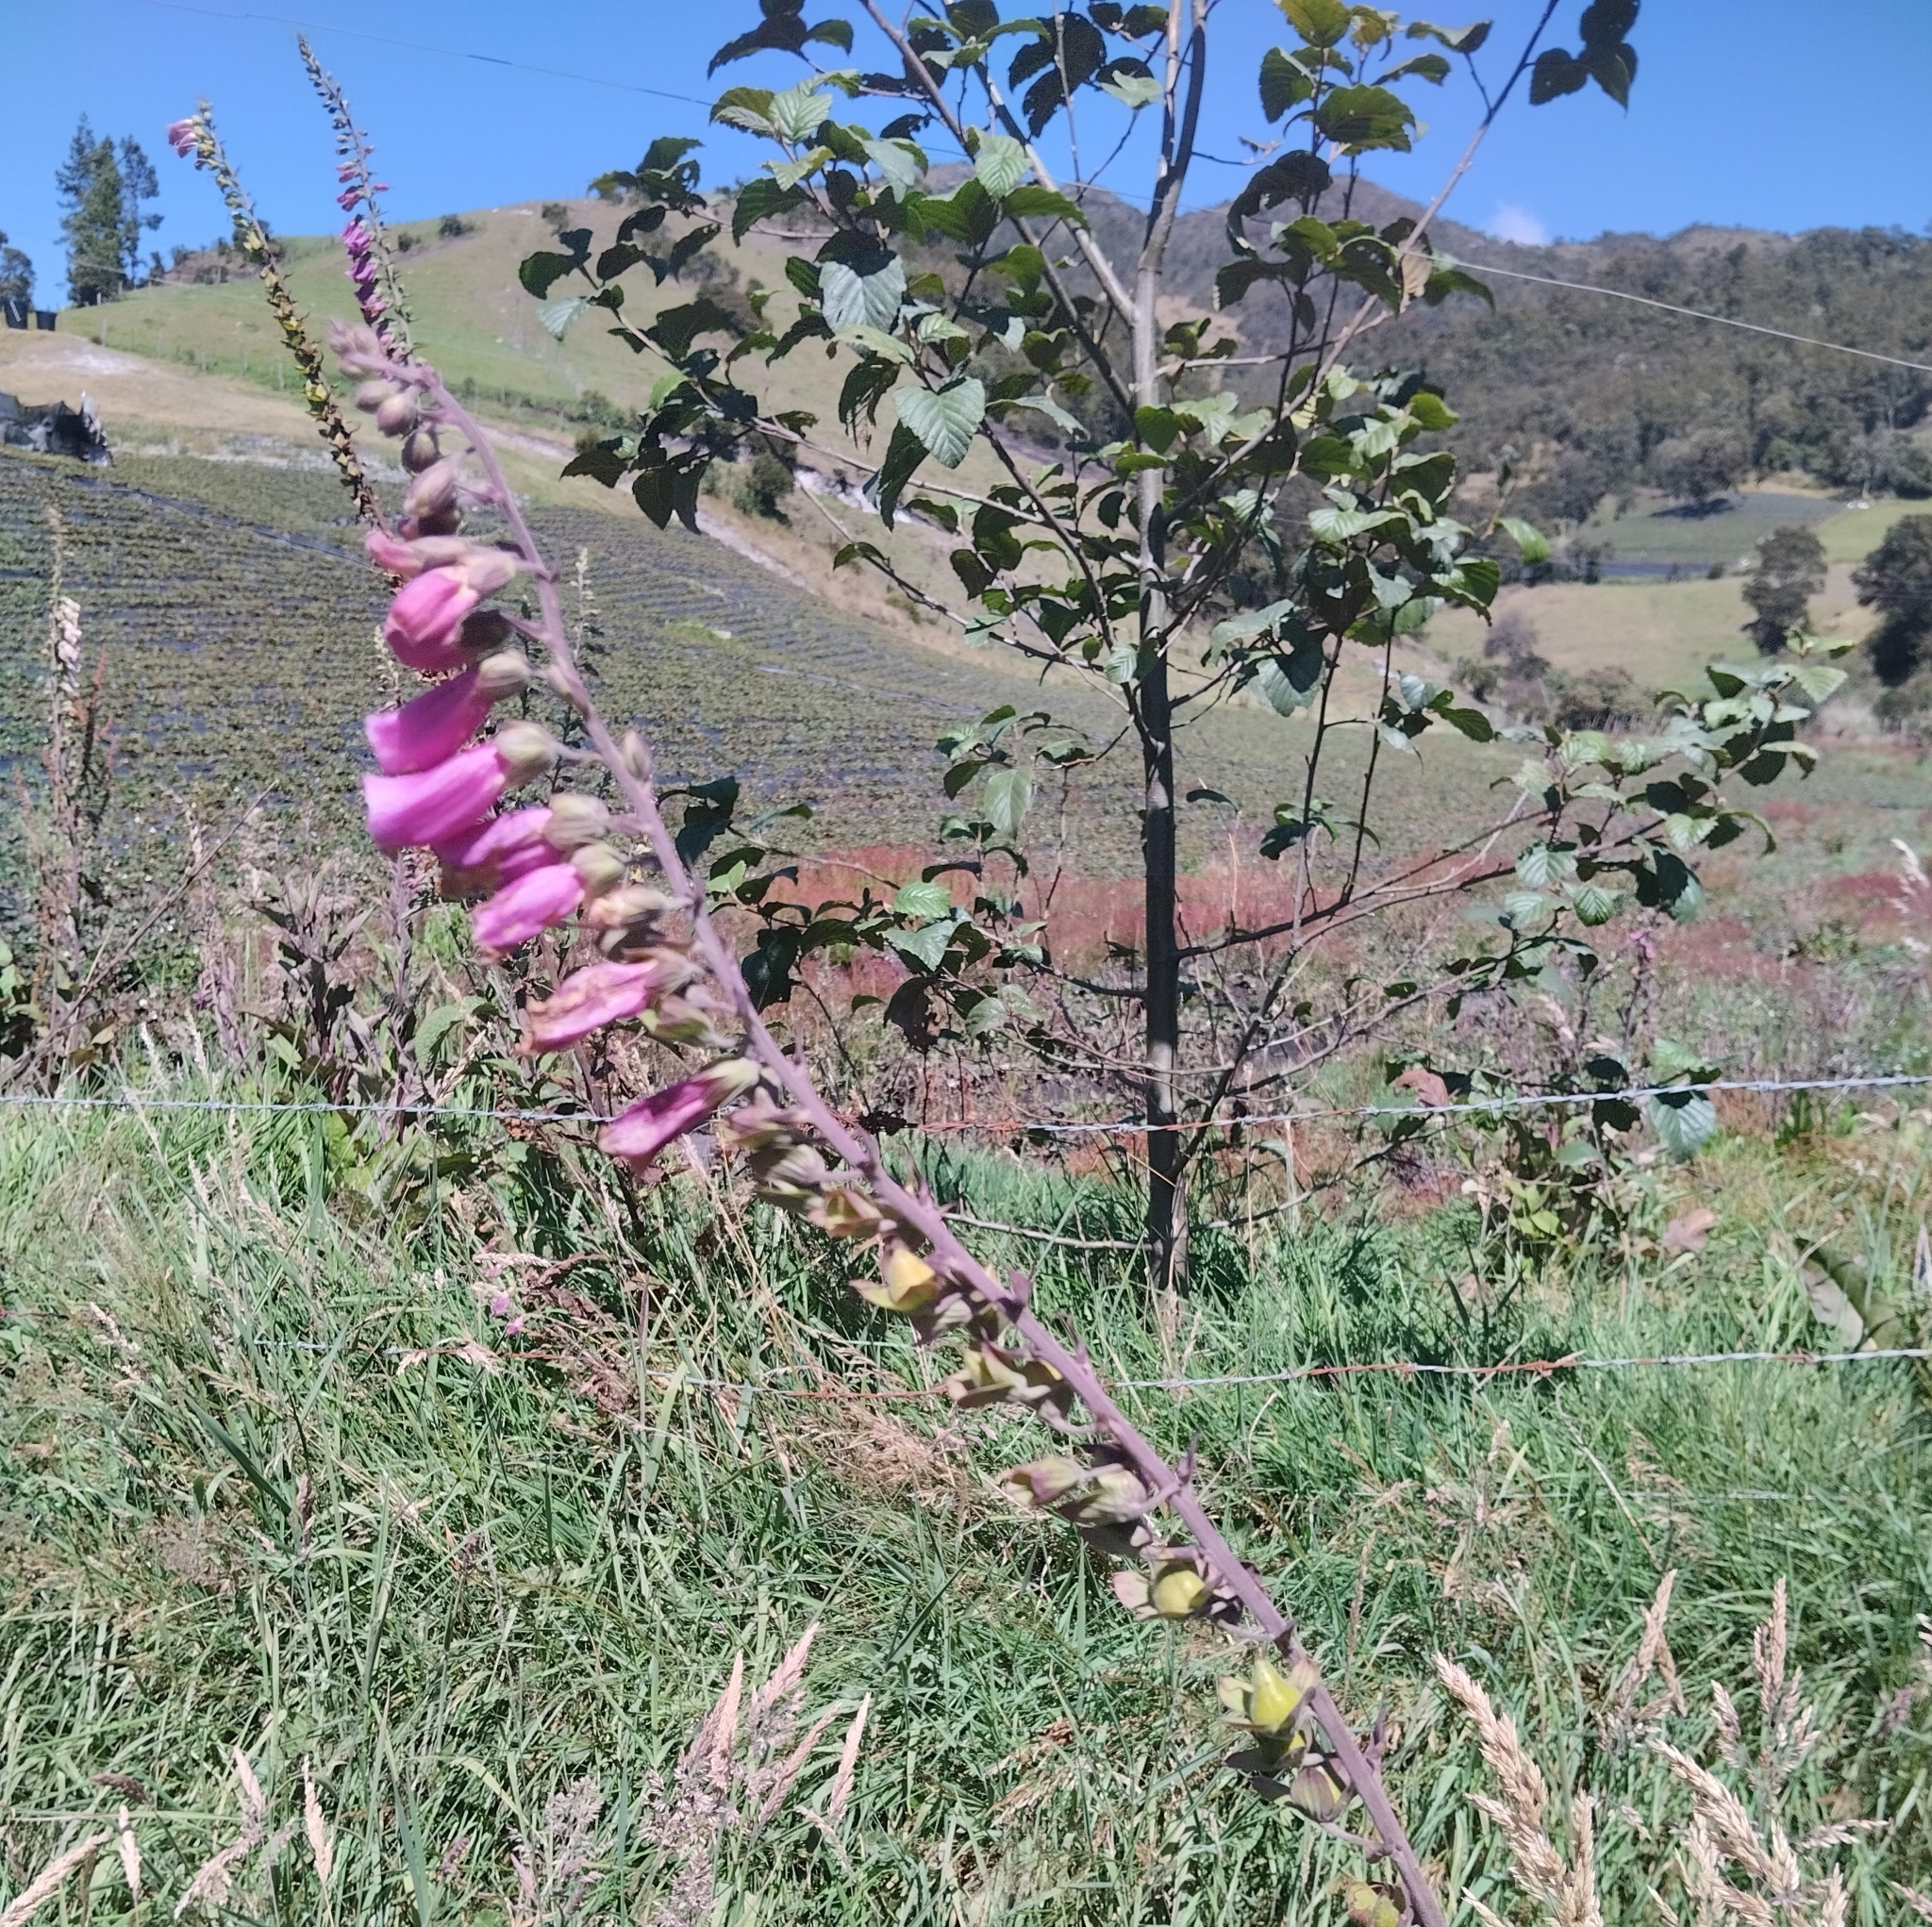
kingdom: Plantae
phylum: Tracheophyta
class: Magnoliopsida
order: Lamiales
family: Plantaginaceae
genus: Digitalis
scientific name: Digitalis purpurea
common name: Foxglove
